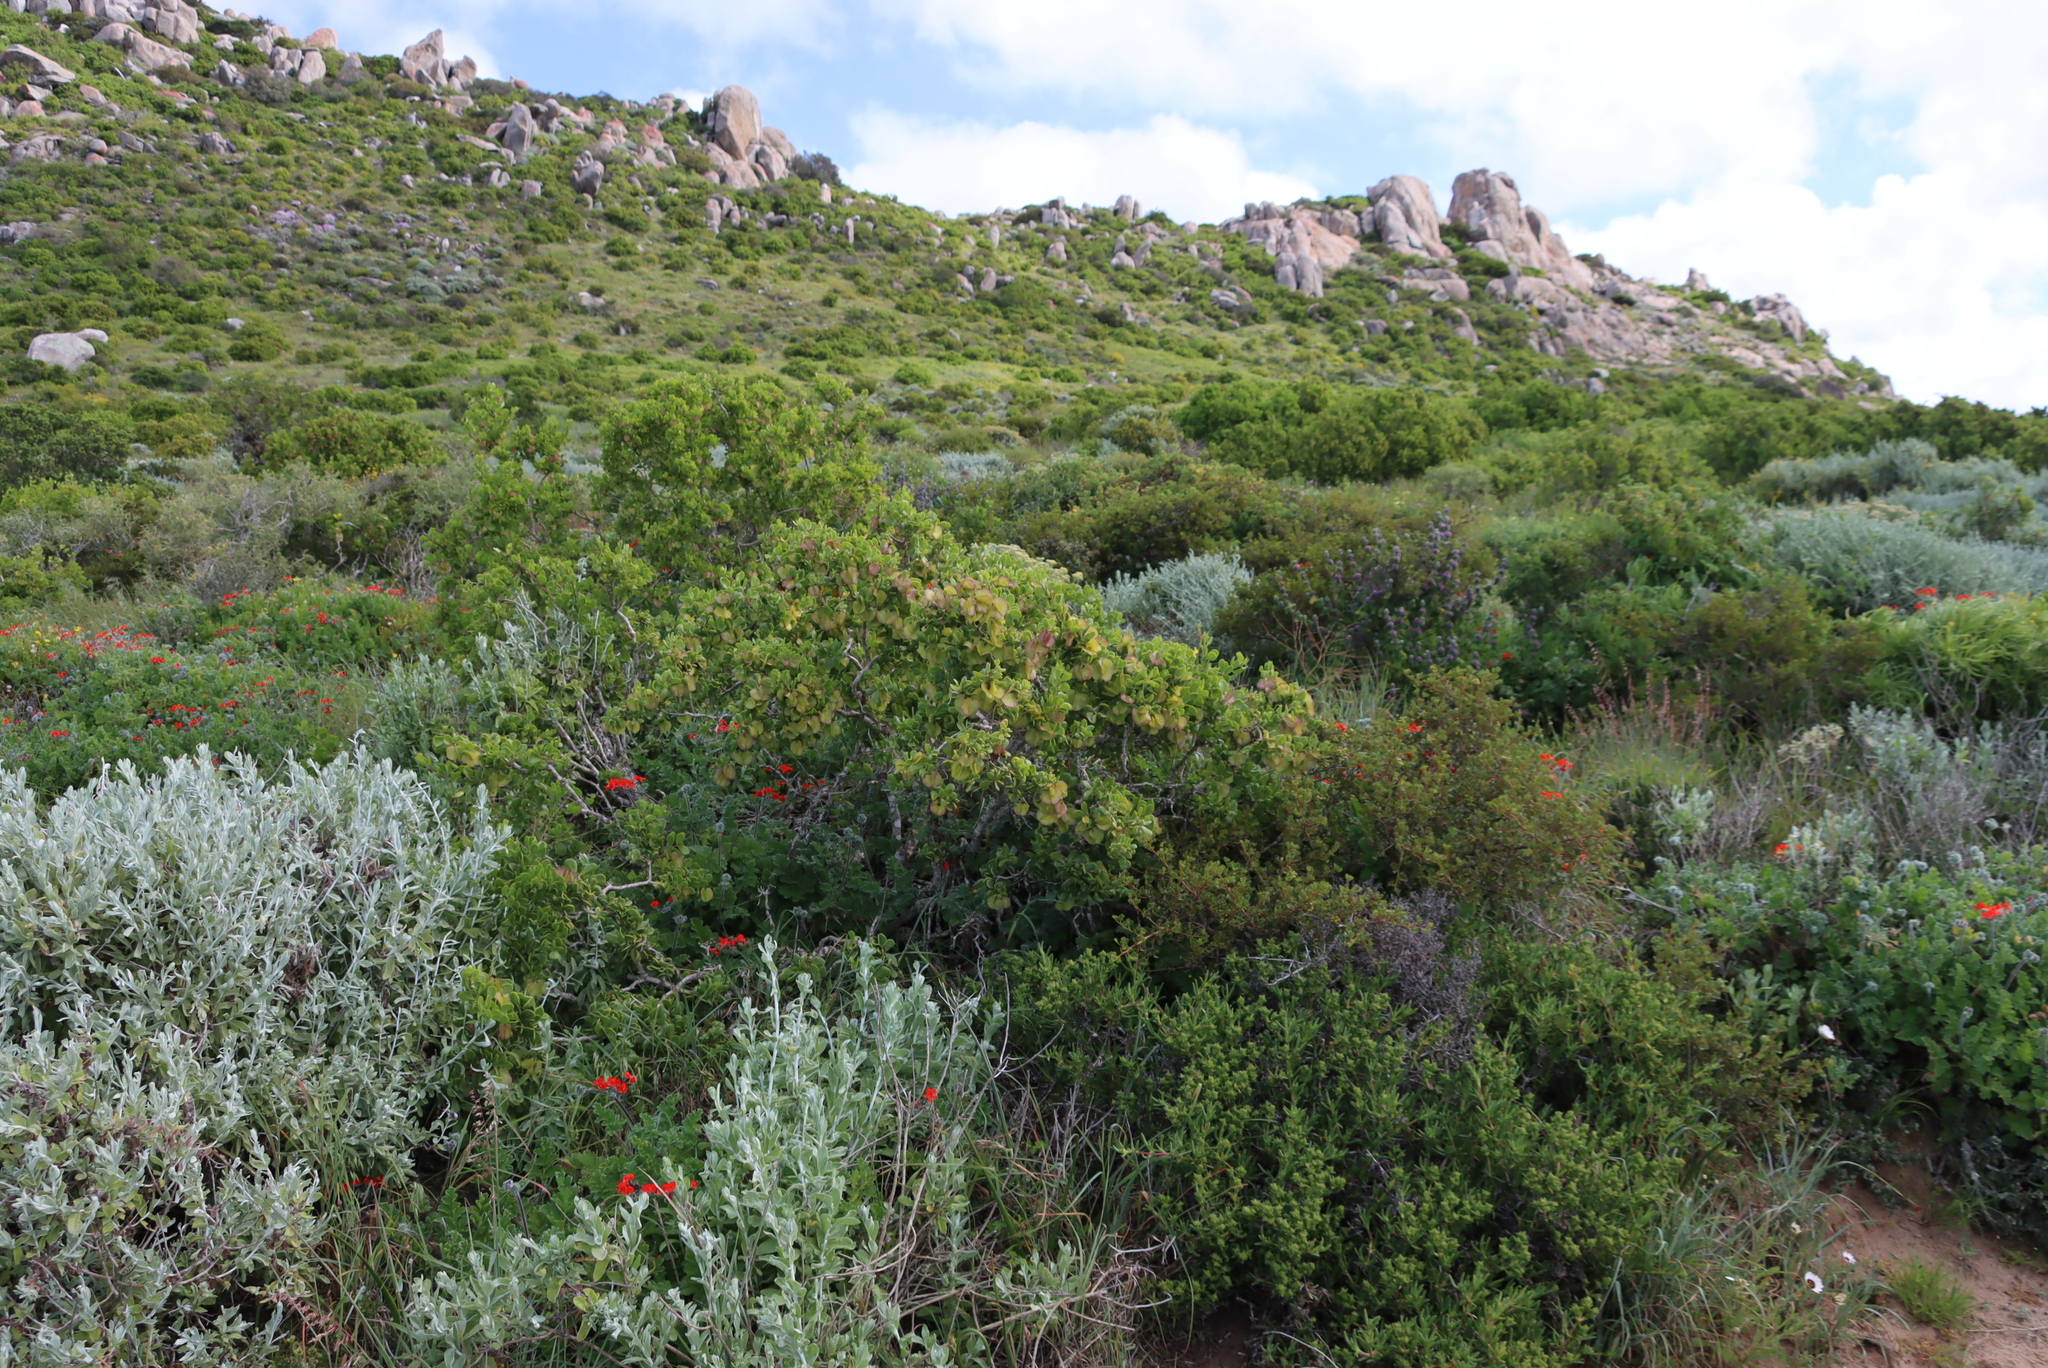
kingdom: Plantae
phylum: Tracheophyta
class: Magnoliopsida
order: Geraniales
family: Geraniaceae
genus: Pelargonium
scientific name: Pelargonium fulgidum
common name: Celandine-leaf pelargonium
